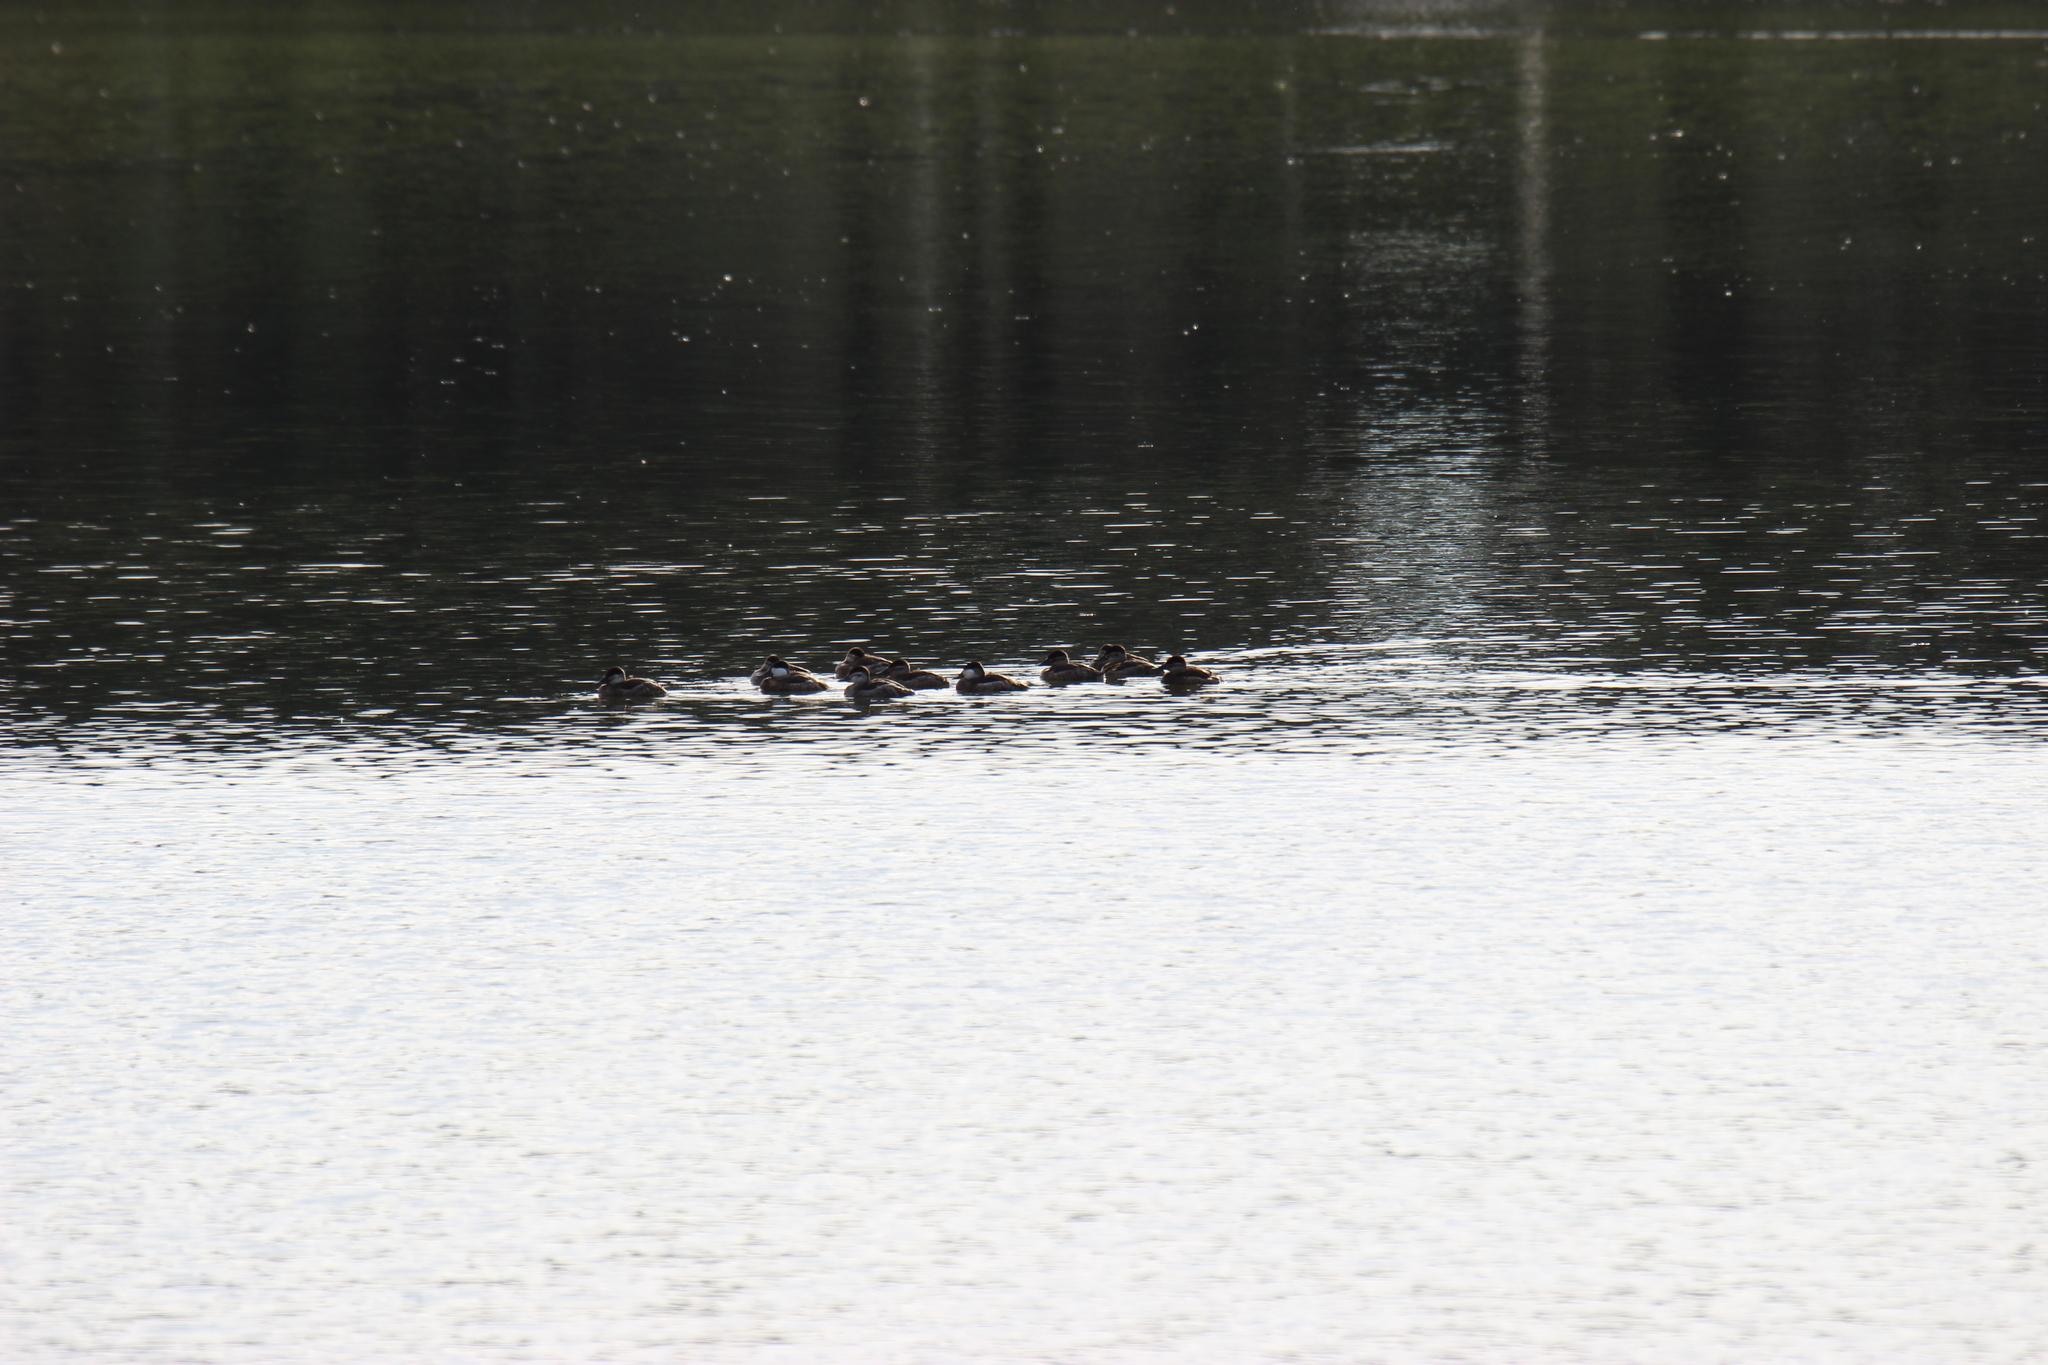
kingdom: Animalia
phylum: Chordata
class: Aves
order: Anseriformes
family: Anatidae
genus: Oxyura
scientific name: Oxyura jamaicensis
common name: Ruddy duck
